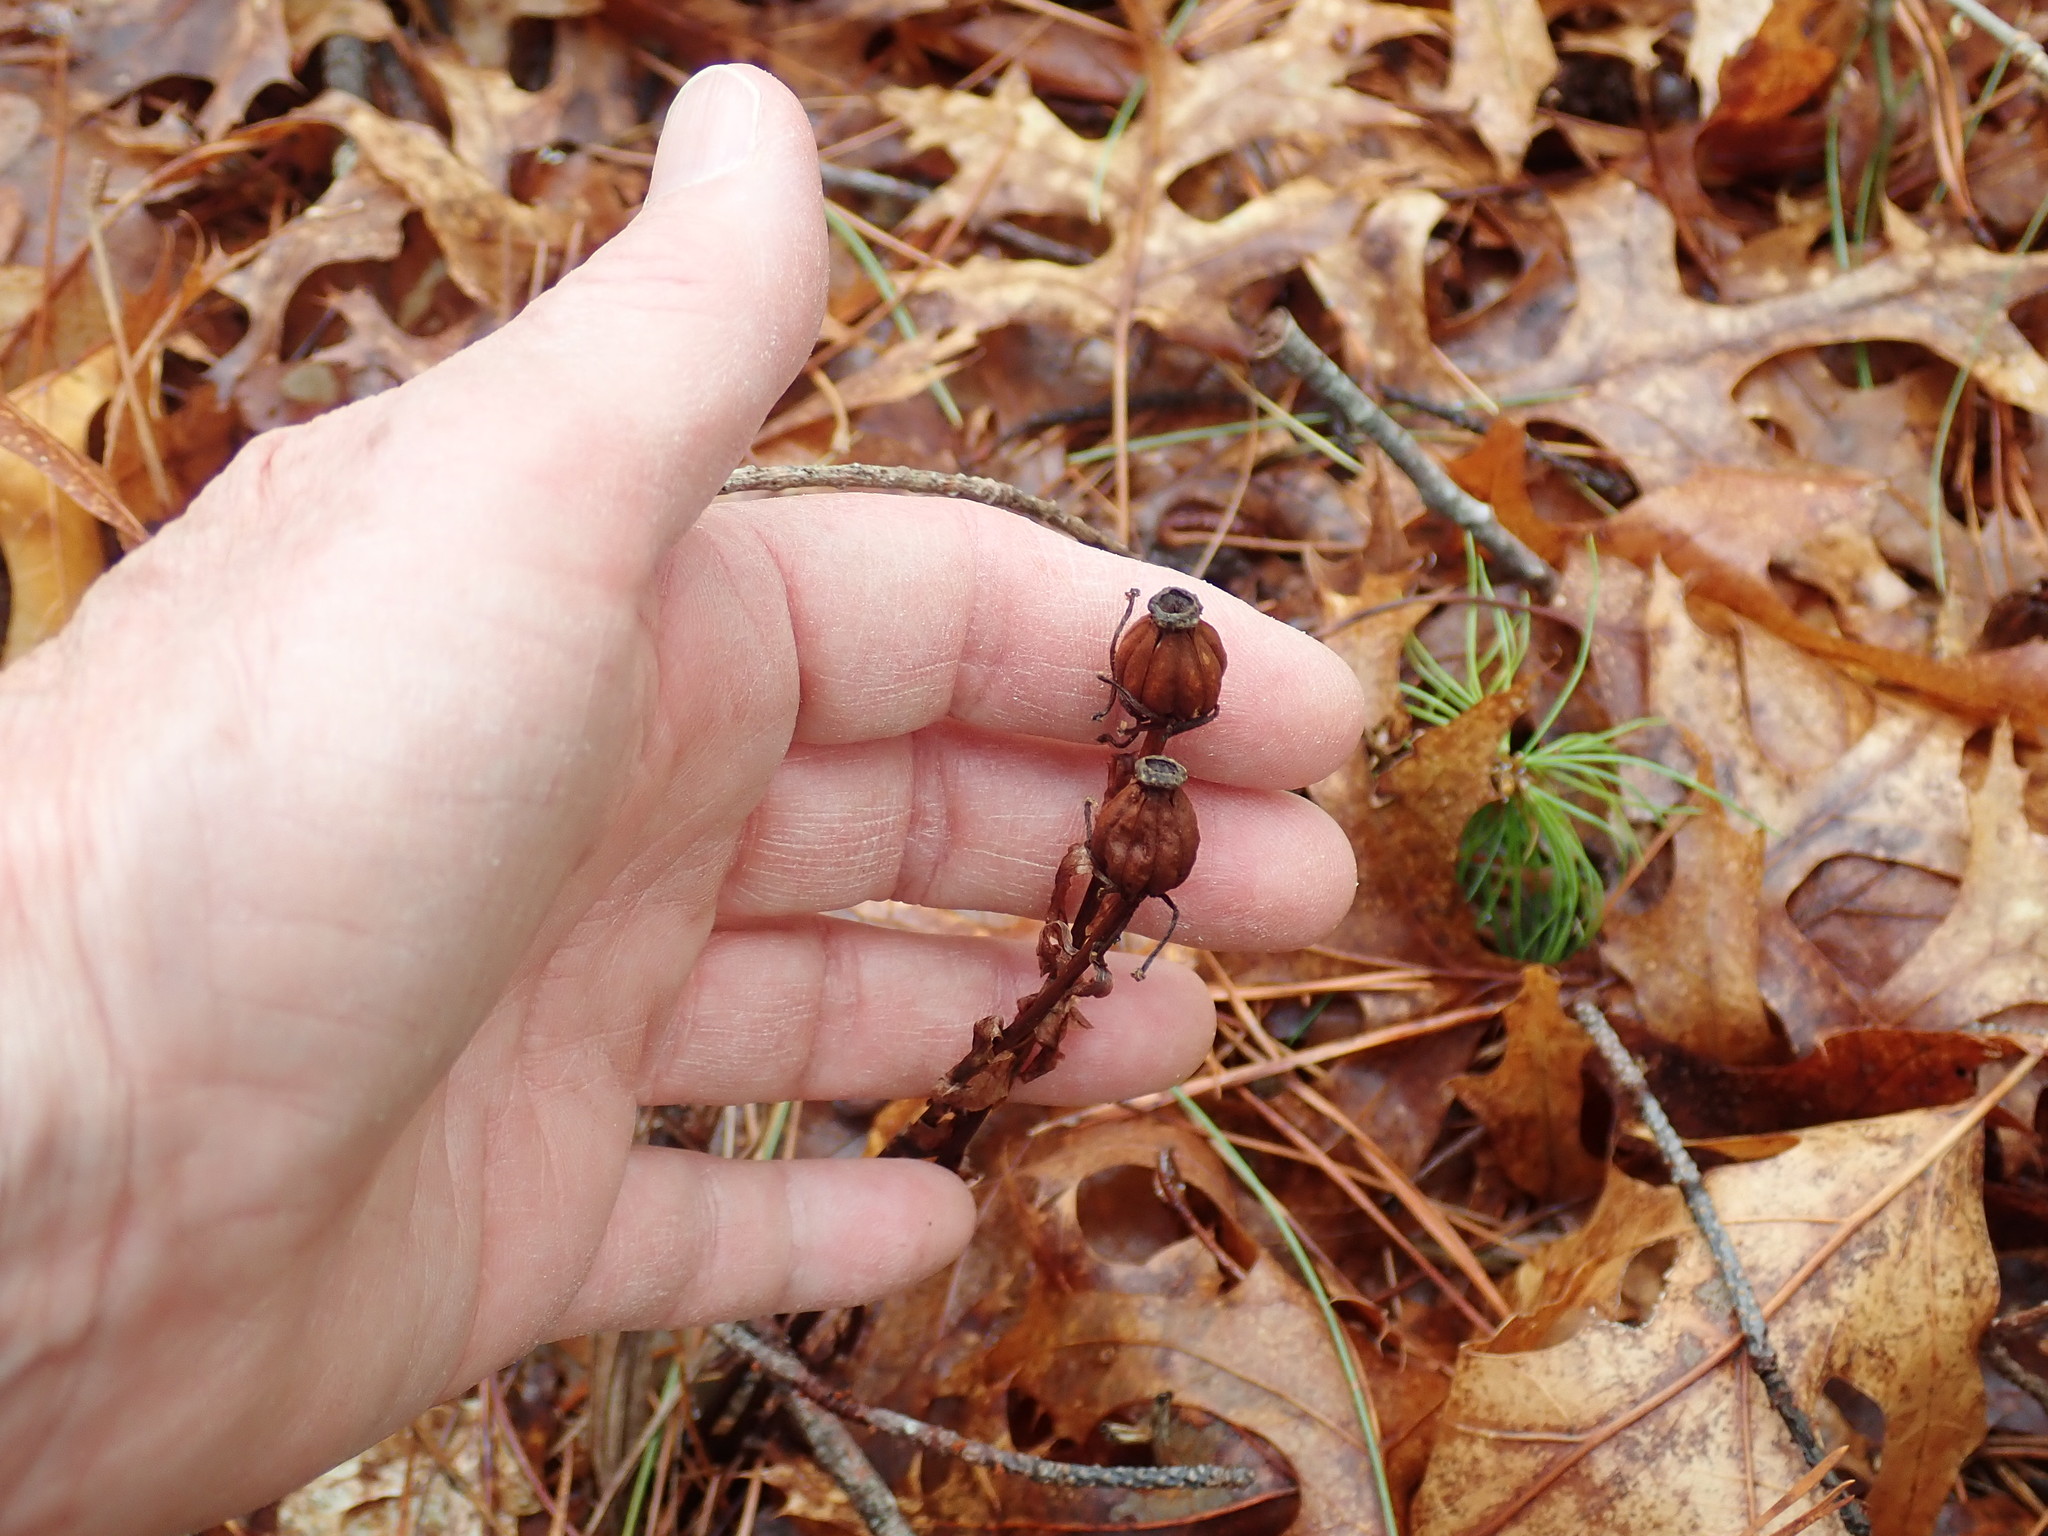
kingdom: Plantae
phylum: Tracheophyta
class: Magnoliopsida
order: Ericales
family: Ericaceae
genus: Monotropa
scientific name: Monotropa uniflora
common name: Convulsion root
